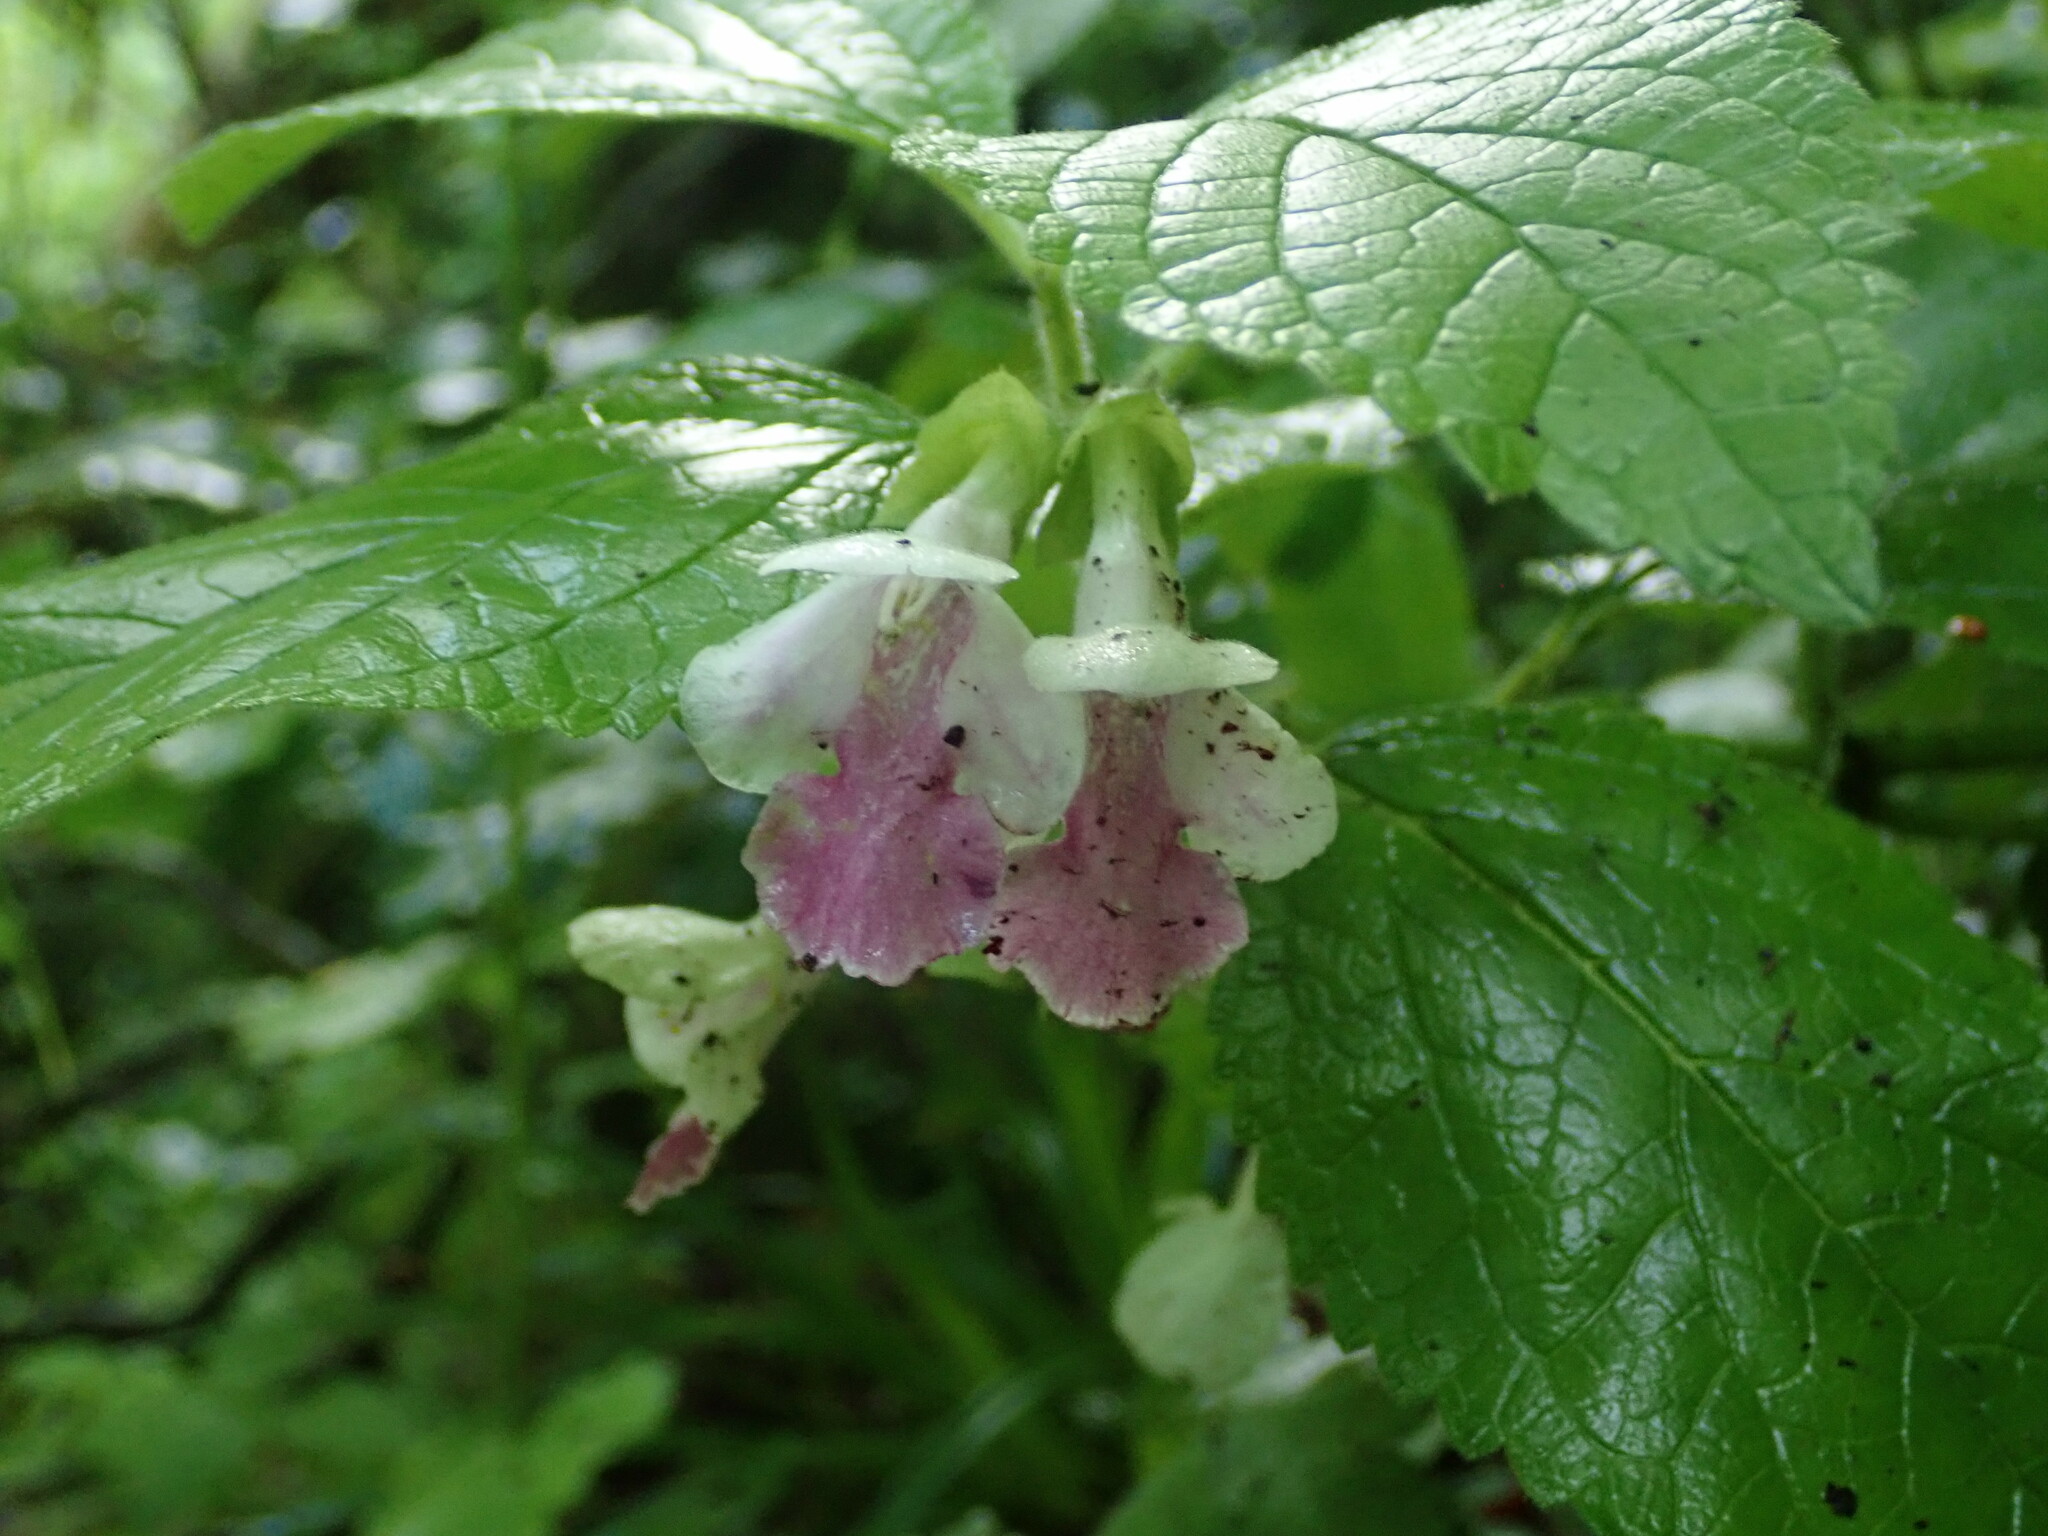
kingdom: Plantae
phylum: Tracheophyta
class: Magnoliopsida
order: Lamiales
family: Lamiaceae
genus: Melittis
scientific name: Melittis melissophyllum
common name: Bastard balm
